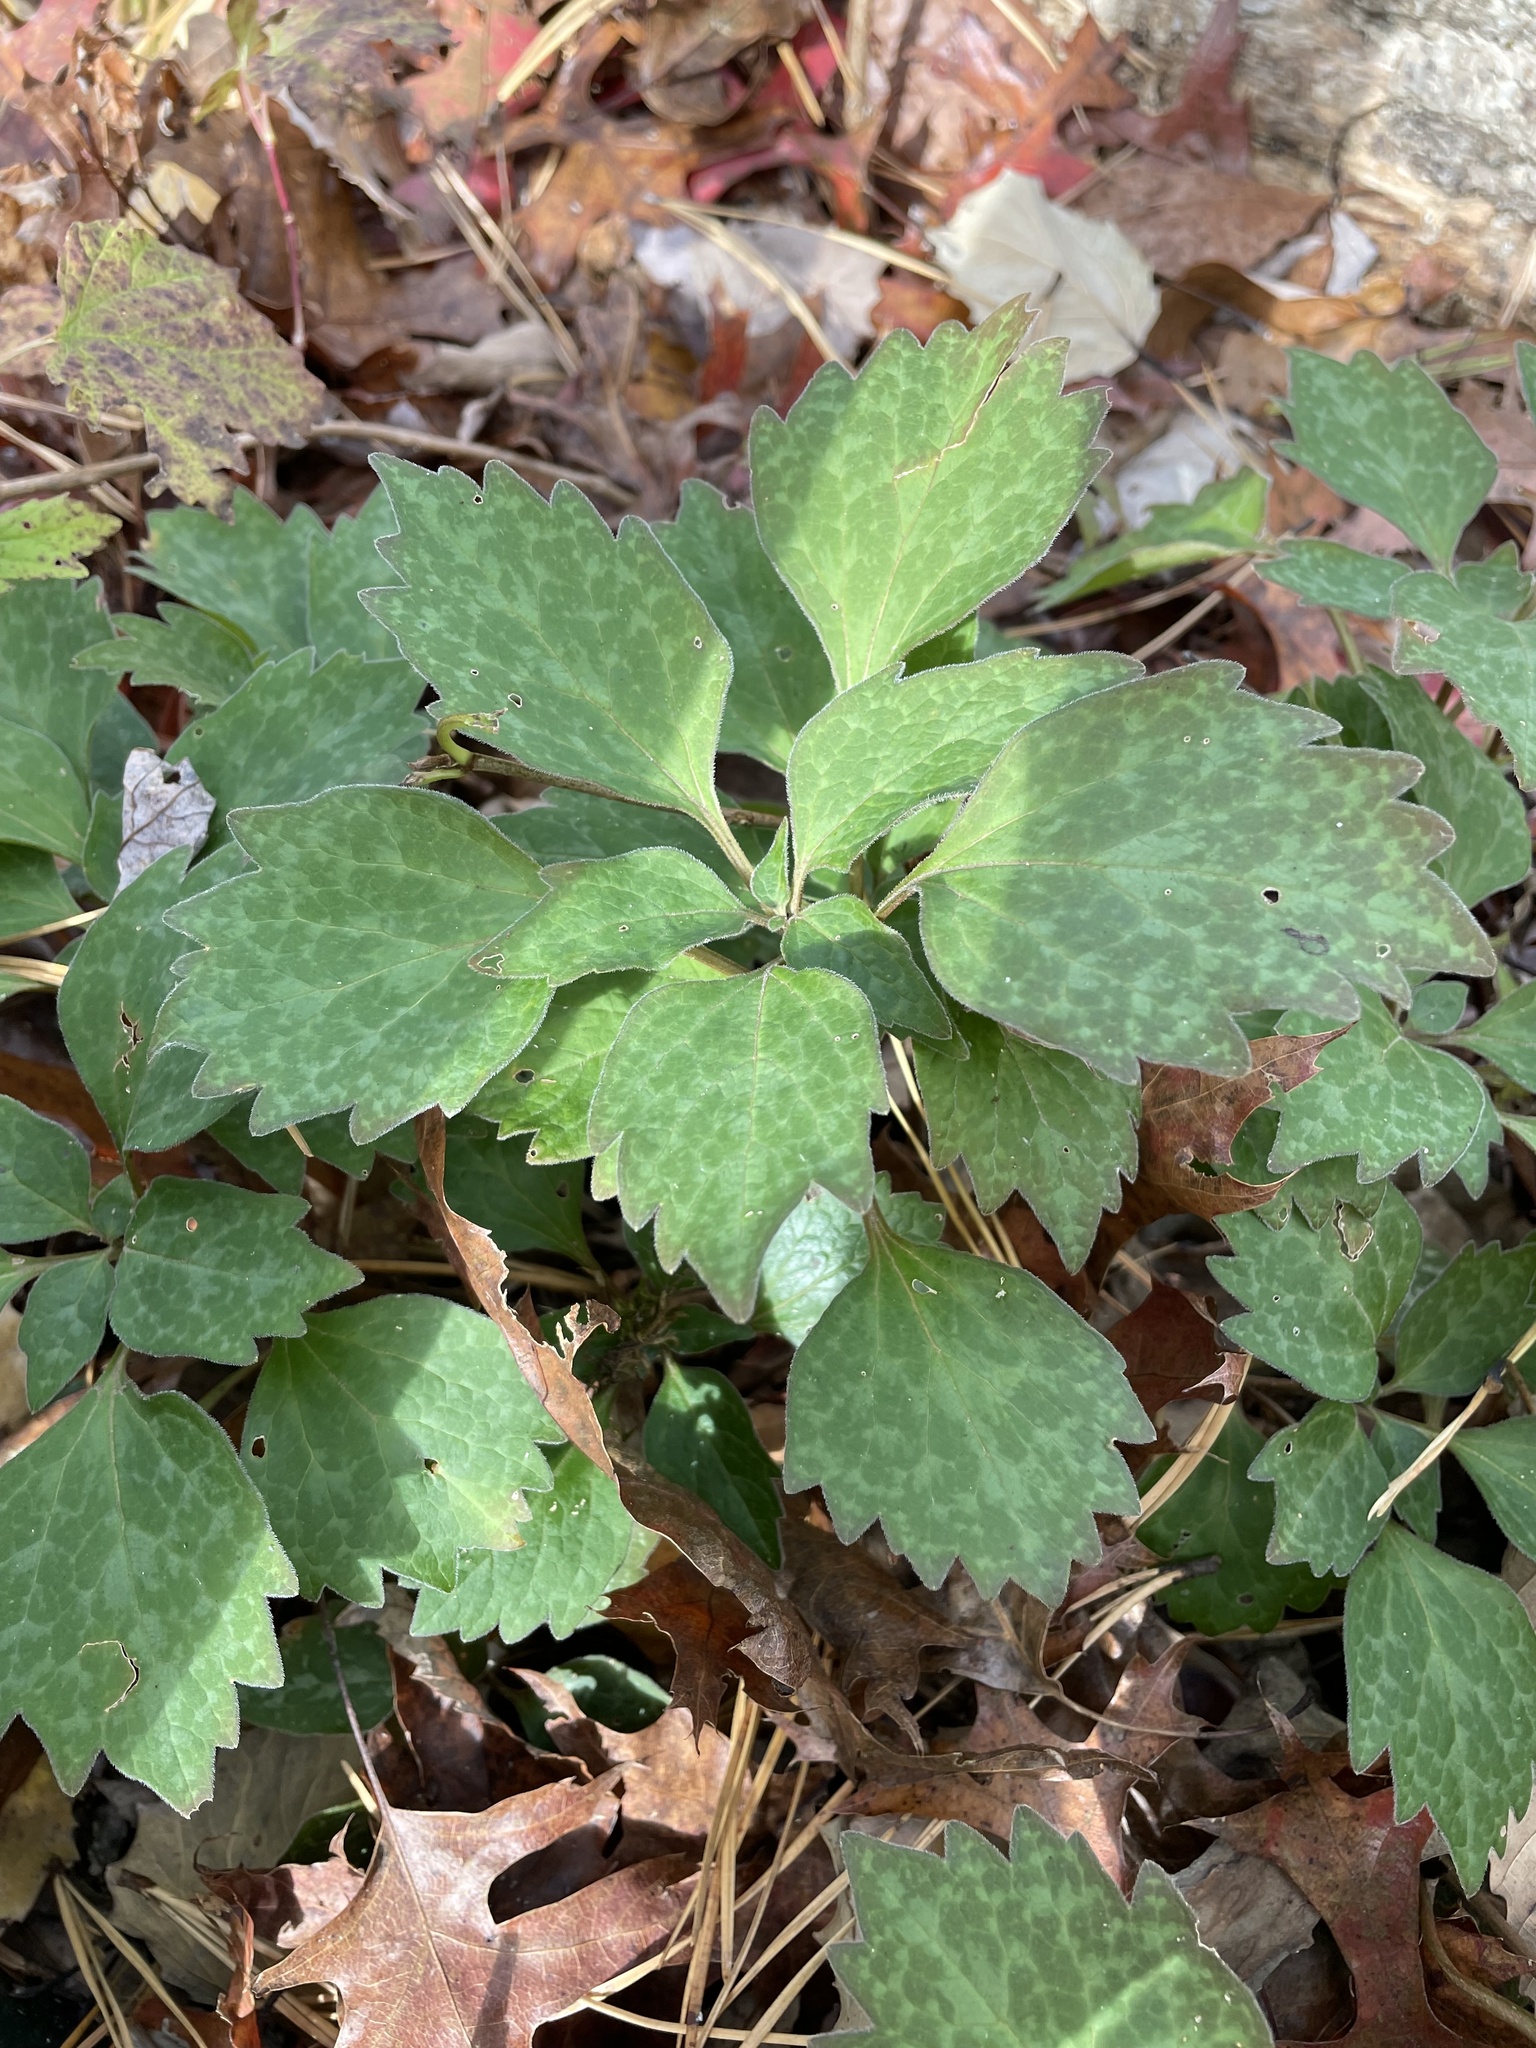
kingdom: Plantae
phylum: Tracheophyta
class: Magnoliopsida
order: Buxales
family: Buxaceae
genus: Pachysandra
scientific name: Pachysandra procumbens
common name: Mountain-spurge
